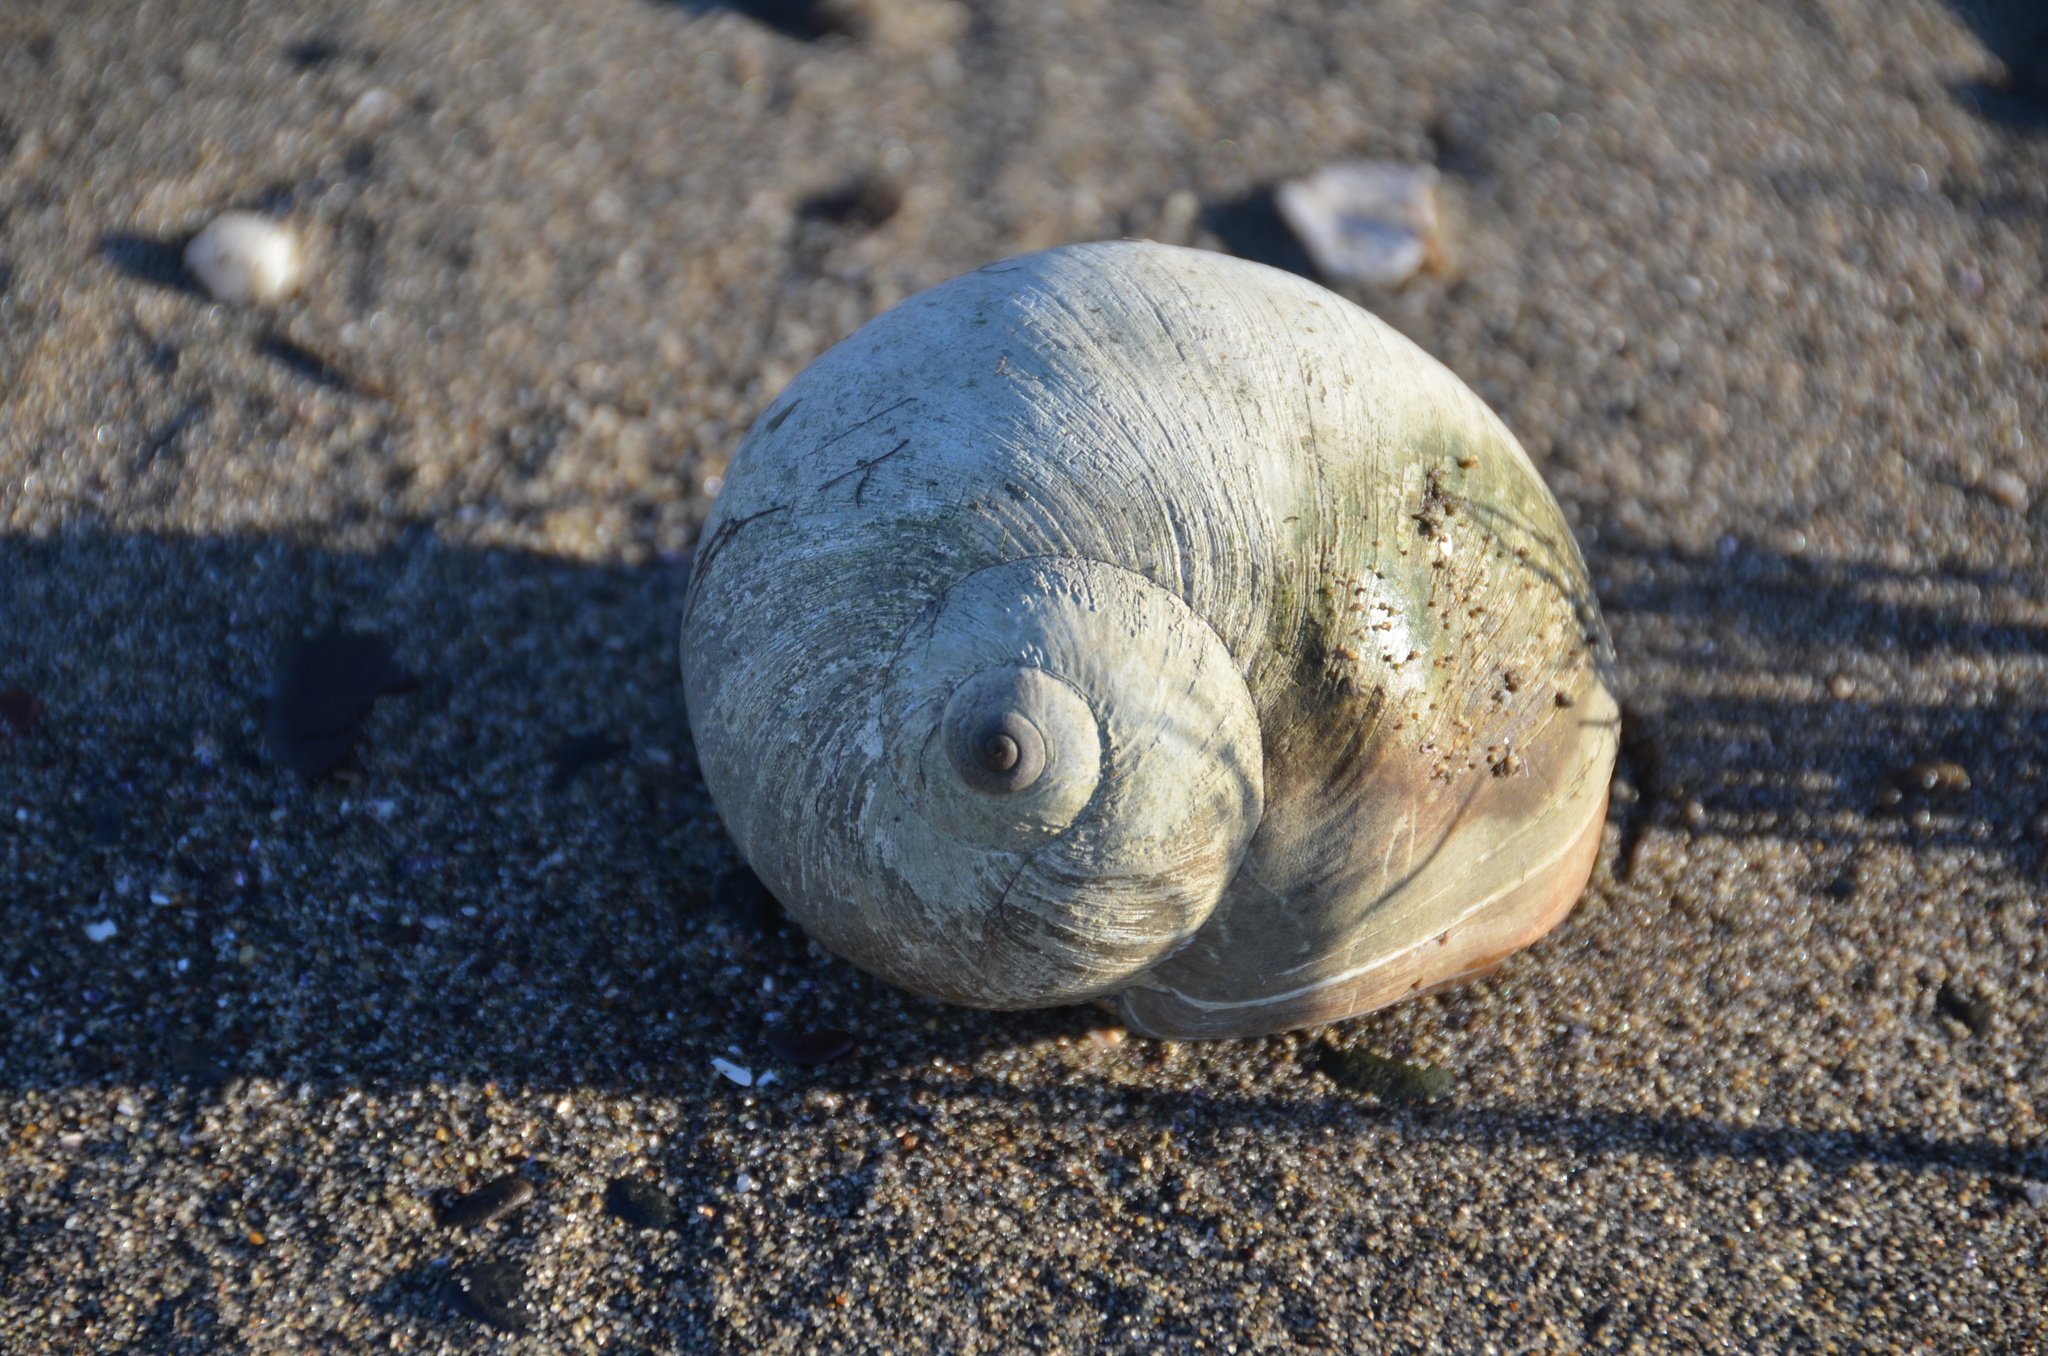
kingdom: Animalia
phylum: Mollusca
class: Gastropoda
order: Littorinimorpha
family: Naticidae
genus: Neverita
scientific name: Neverita lewisii
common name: Lewis' moonsnail
